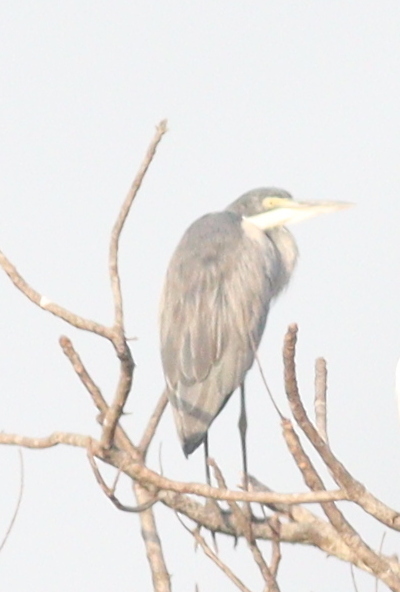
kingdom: Animalia
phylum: Chordata
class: Aves
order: Pelecaniformes
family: Ardeidae
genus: Ardea
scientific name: Ardea melanocephala
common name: Black-headed heron
